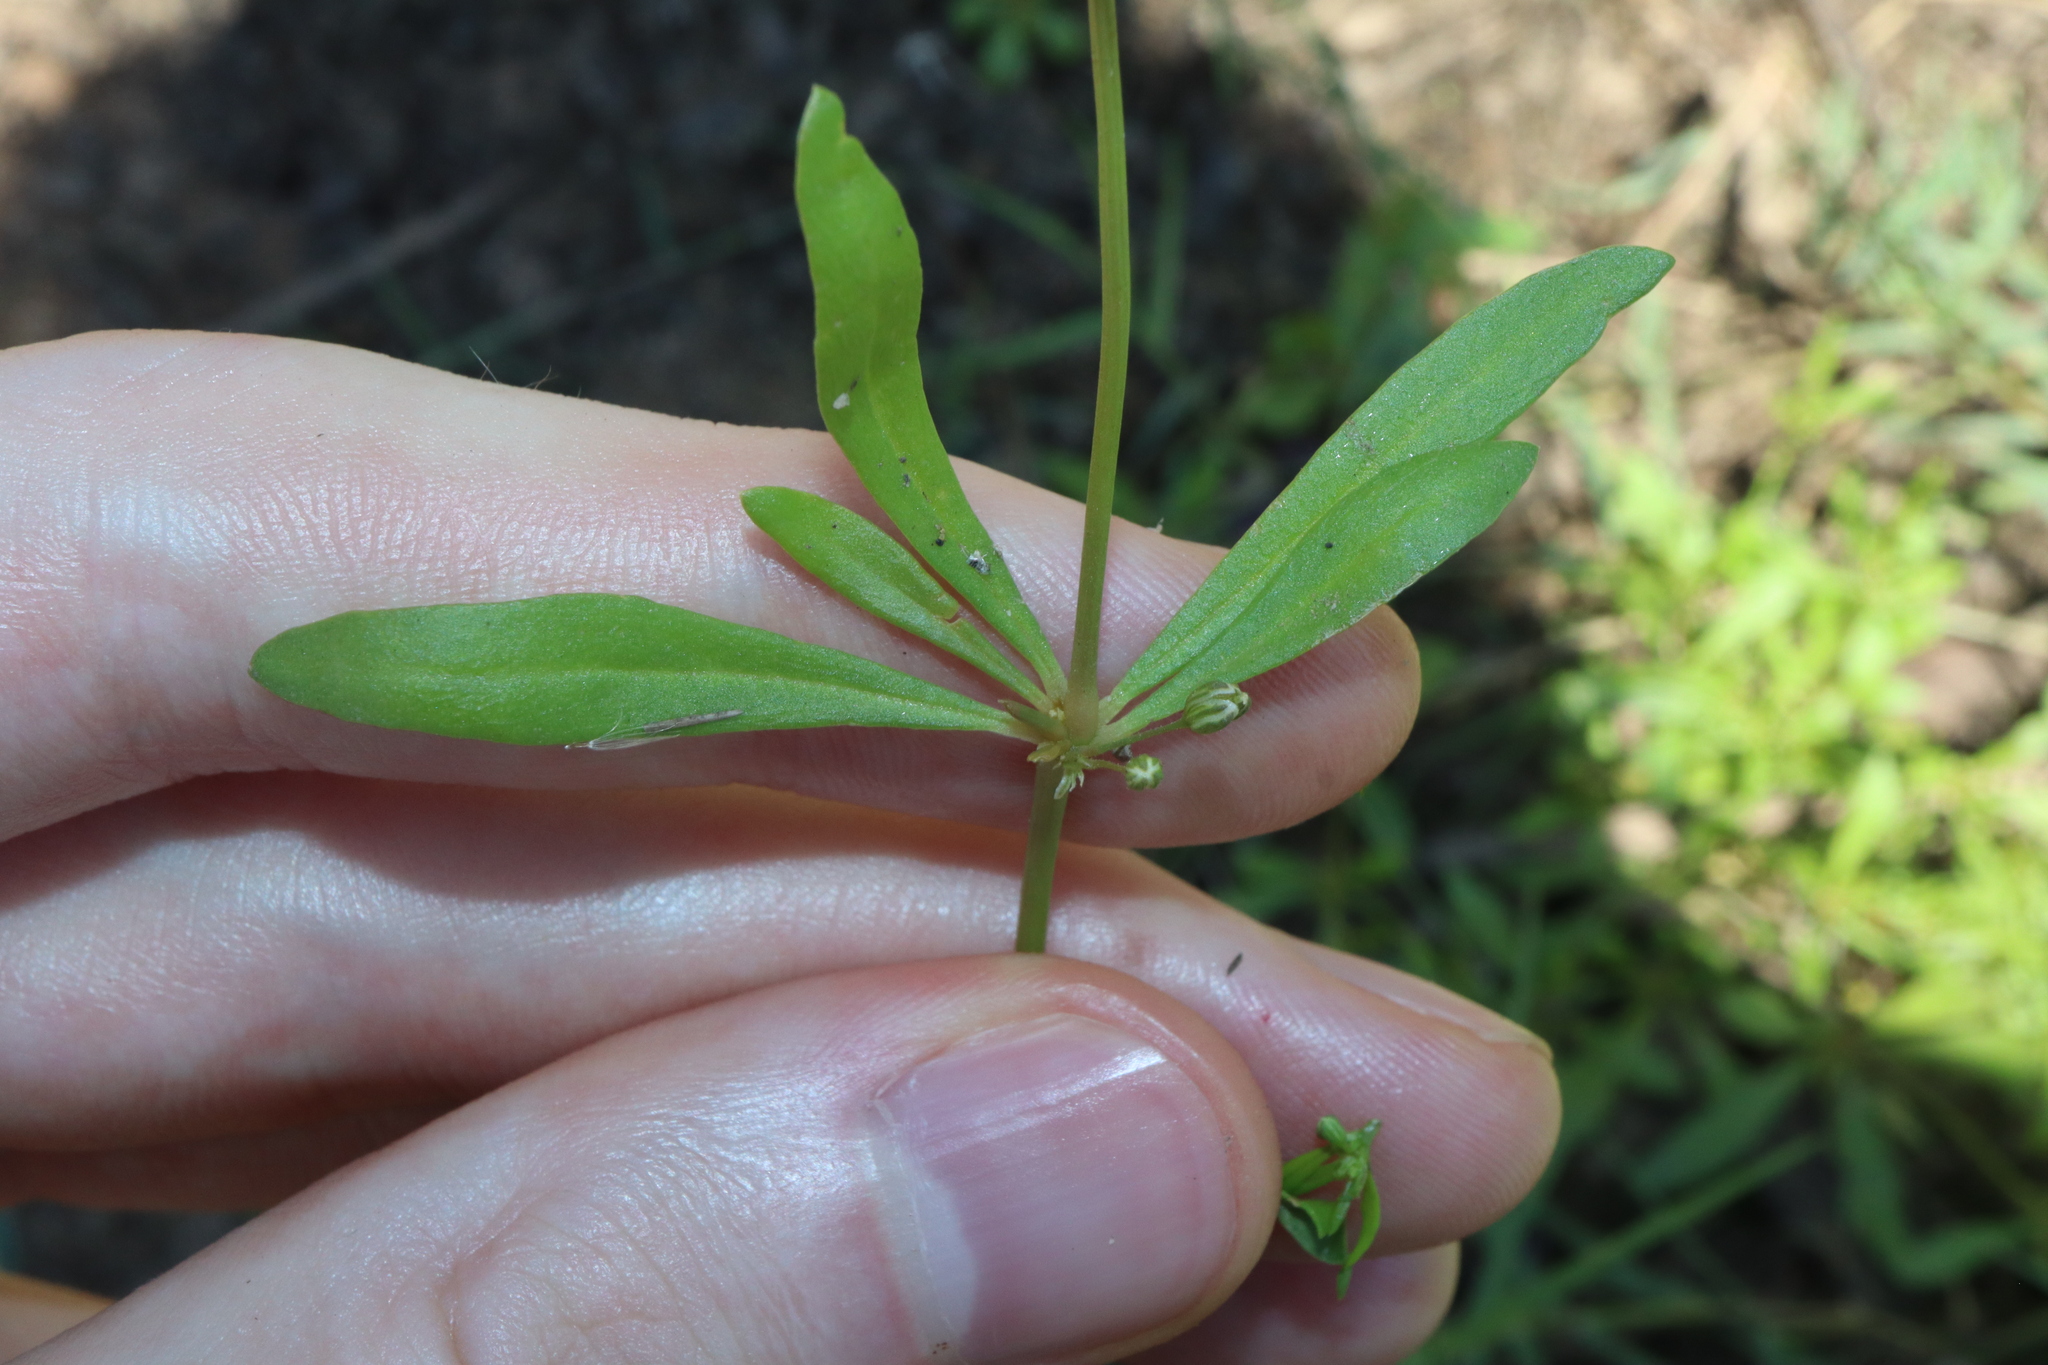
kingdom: Plantae
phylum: Tracheophyta
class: Magnoliopsida
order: Caryophyllales
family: Molluginaceae
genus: Mollugo
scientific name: Mollugo verticillata
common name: Green carpetweed
